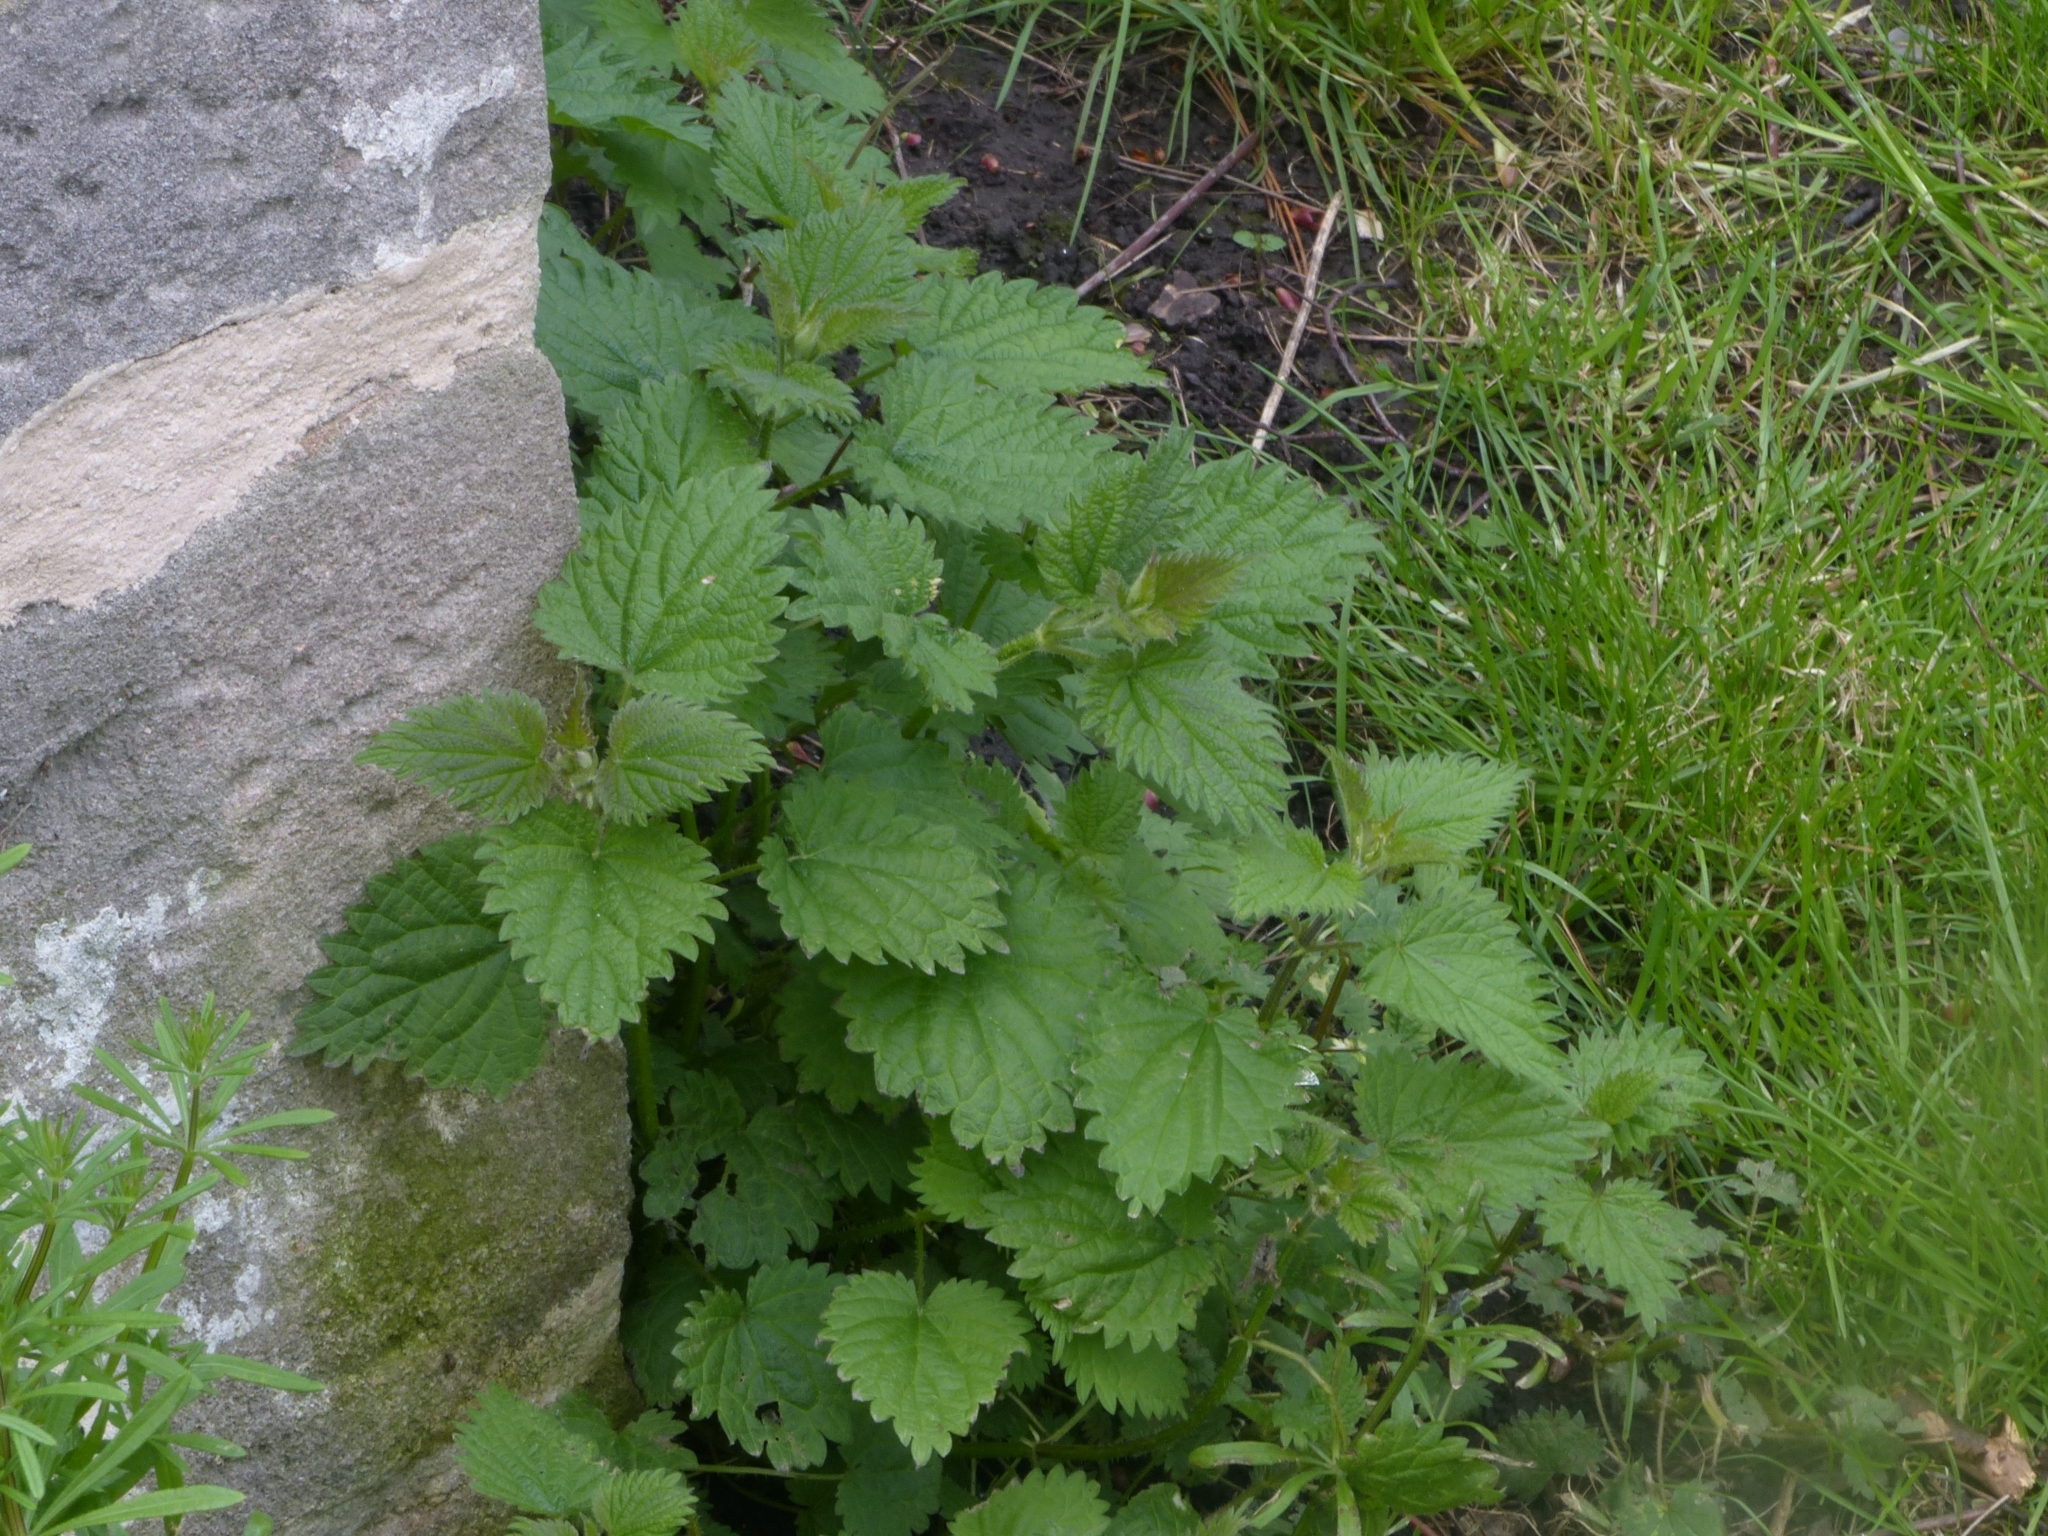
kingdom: Plantae
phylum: Tracheophyta
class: Magnoliopsida
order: Rosales
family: Urticaceae
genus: Urtica
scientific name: Urtica dioica
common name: Common nettle
